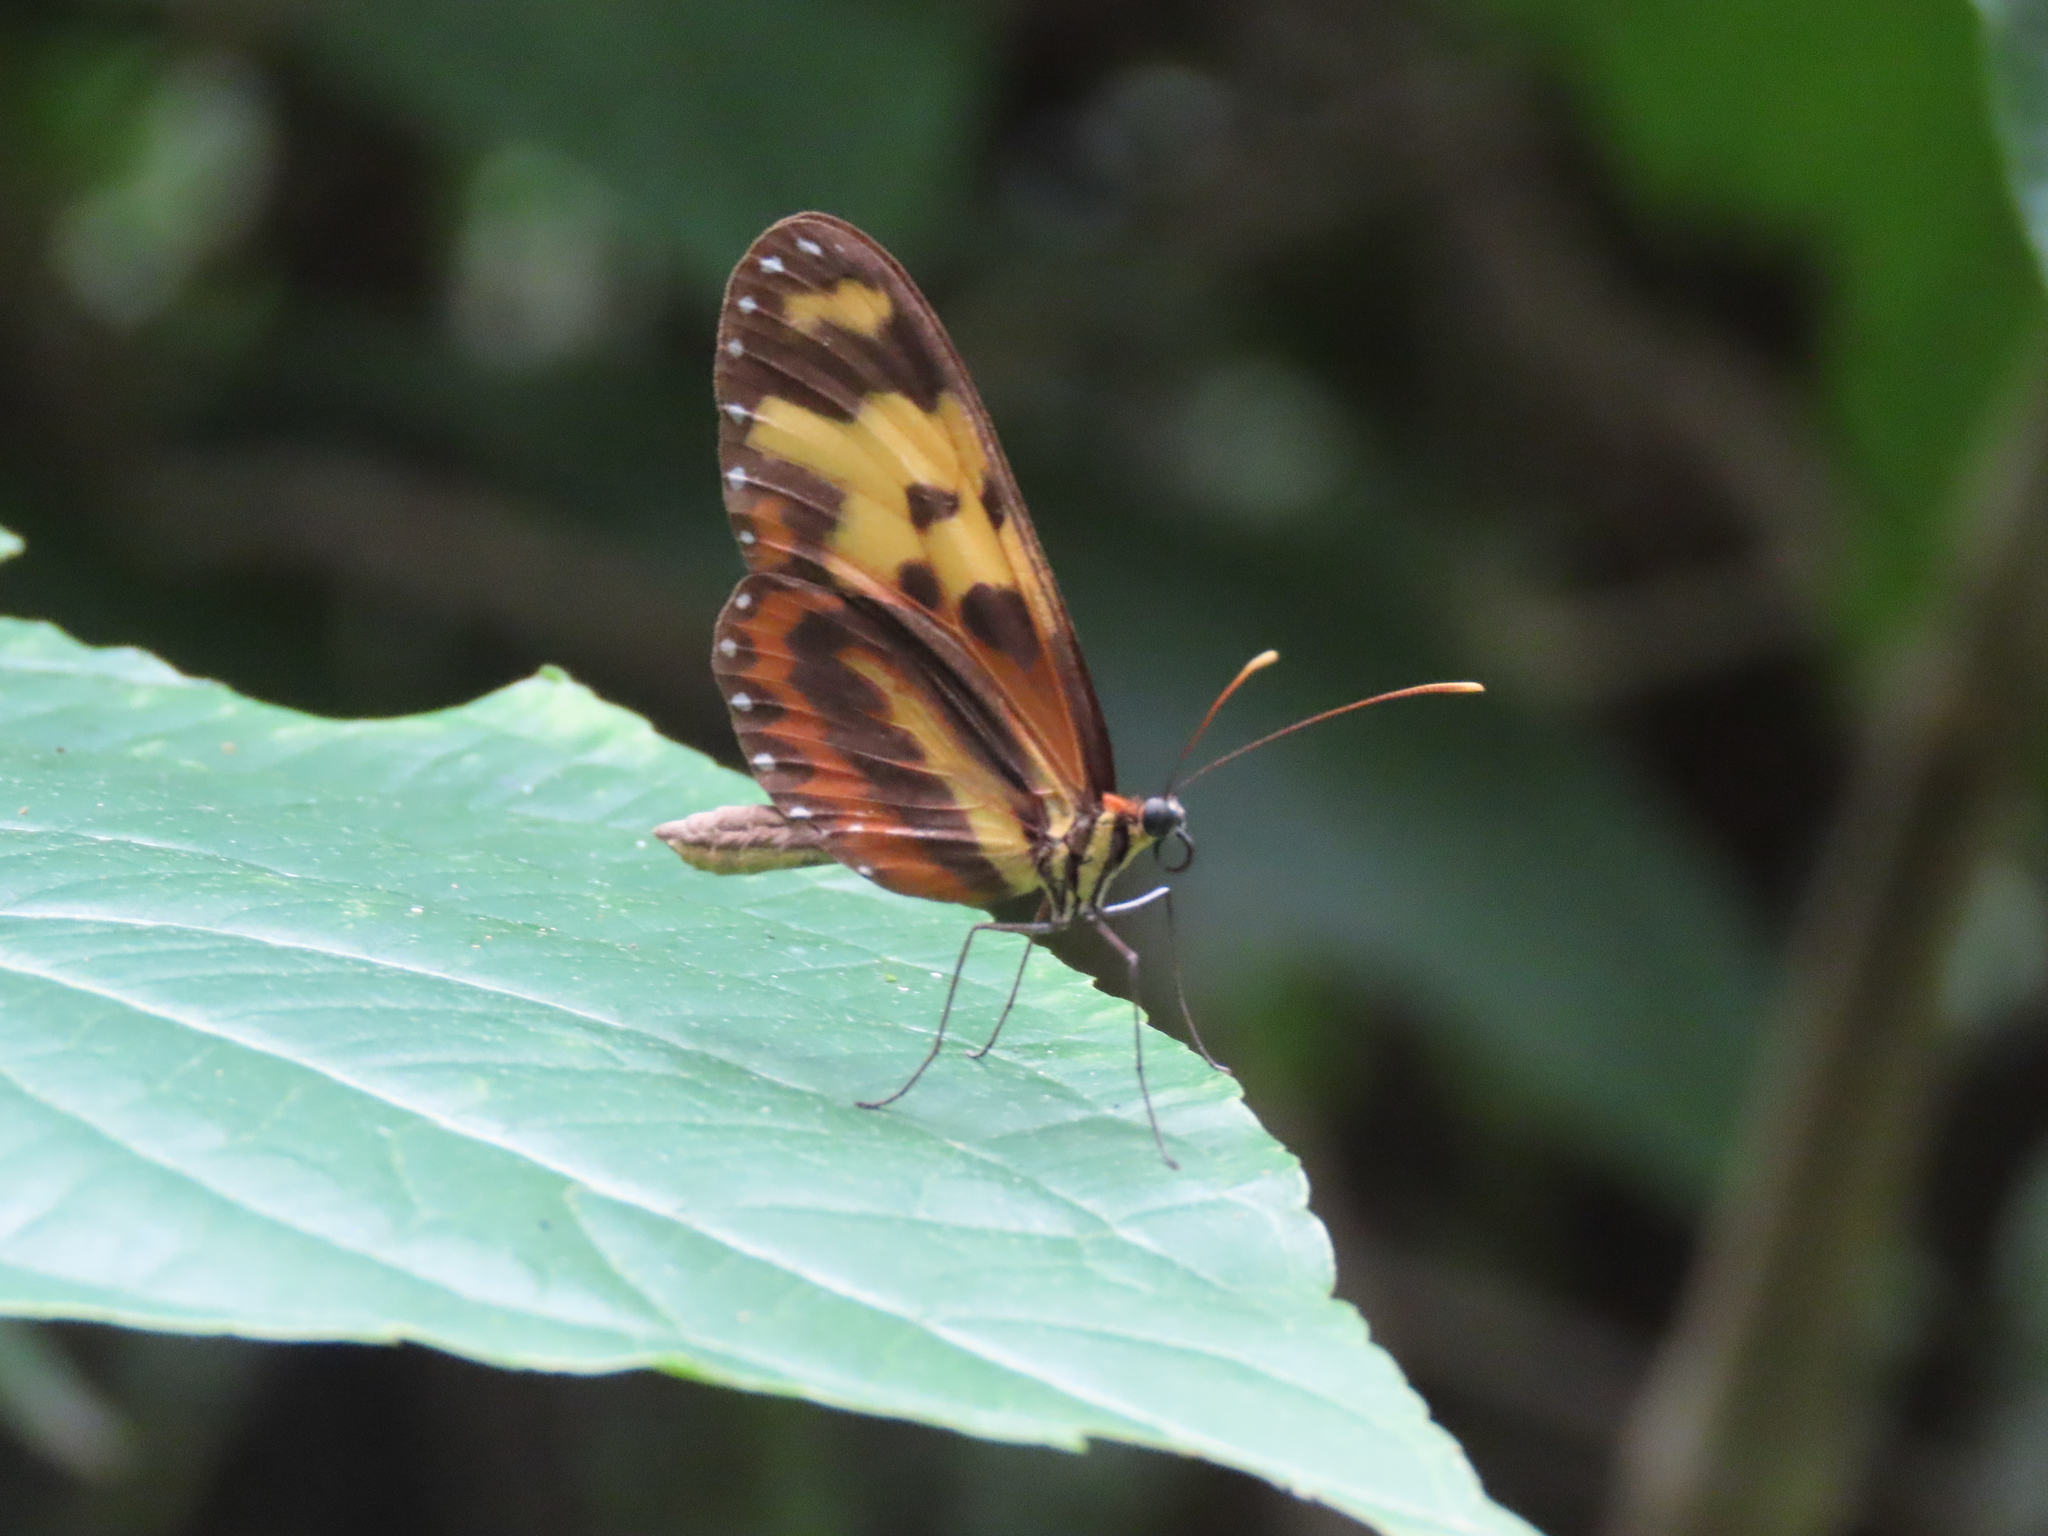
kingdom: Animalia
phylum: Arthropoda
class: Insecta
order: Lepidoptera
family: Nymphalidae
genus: Mechanitis
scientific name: Mechanitis menapis
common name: Menapis tigerwing
